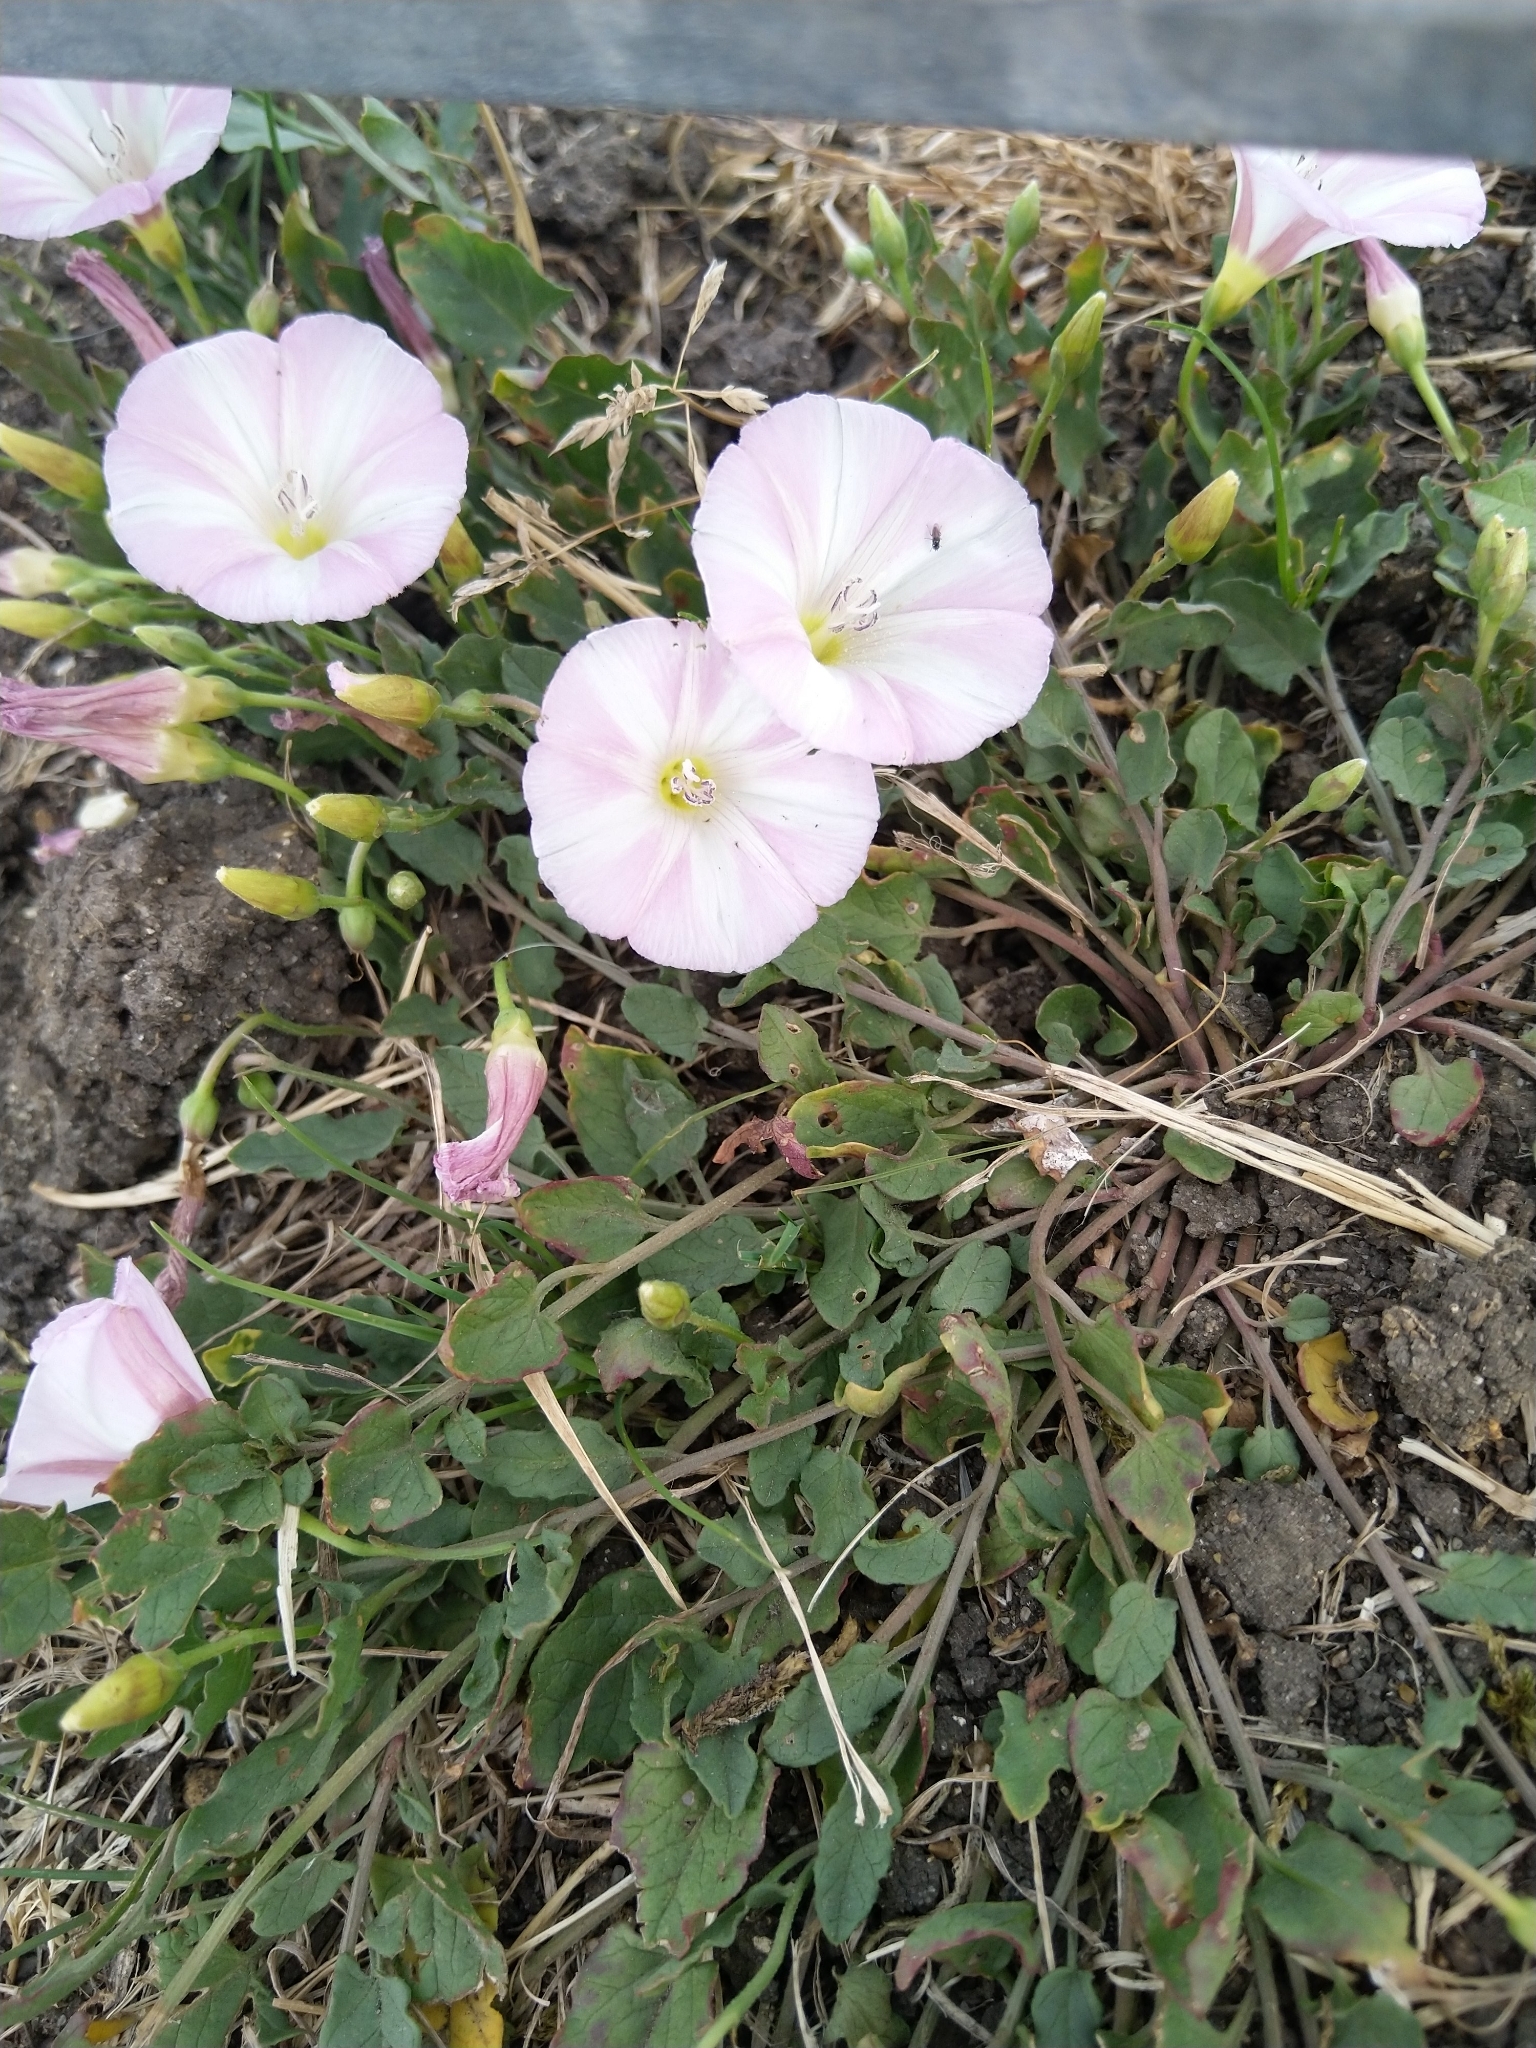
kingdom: Plantae
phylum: Tracheophyta
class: Magnoliopsida
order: Solanales
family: Convolvulaceae
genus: Convolvulus
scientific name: Convolvulus arvensis
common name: Field bindweed
